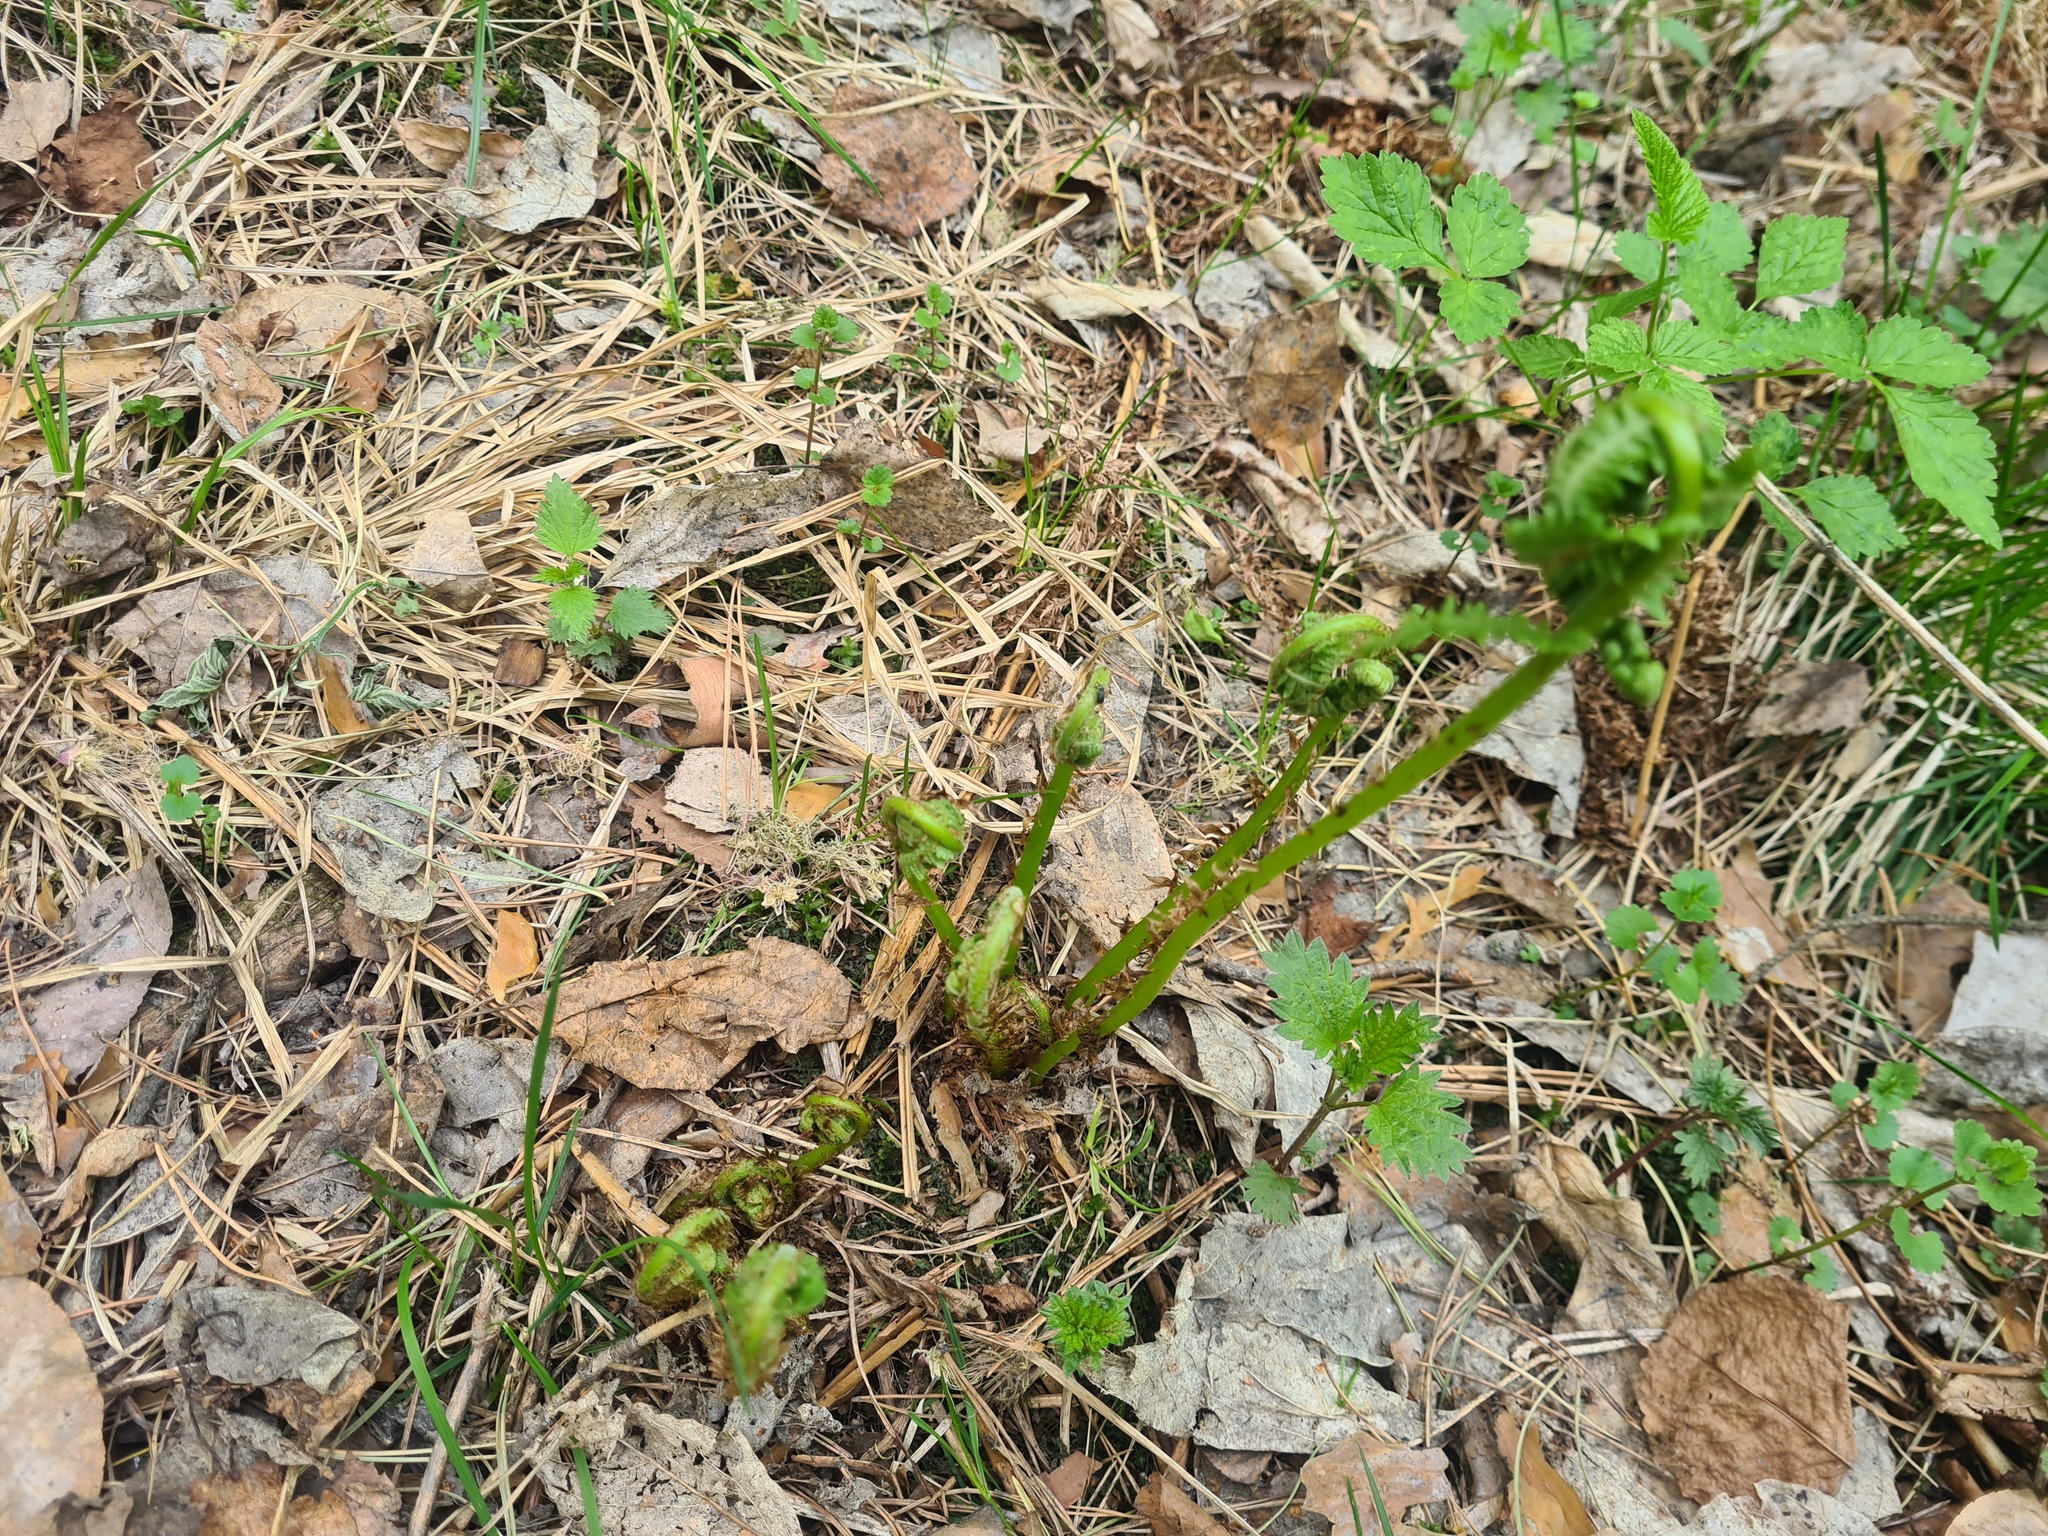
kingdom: Plantae
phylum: Tracheophyta
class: Polypodiopsida
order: Polypodiales
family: Onocleaceae
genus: Matteuccia
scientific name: Matteuccia struthiopteris
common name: Ostrich fern
